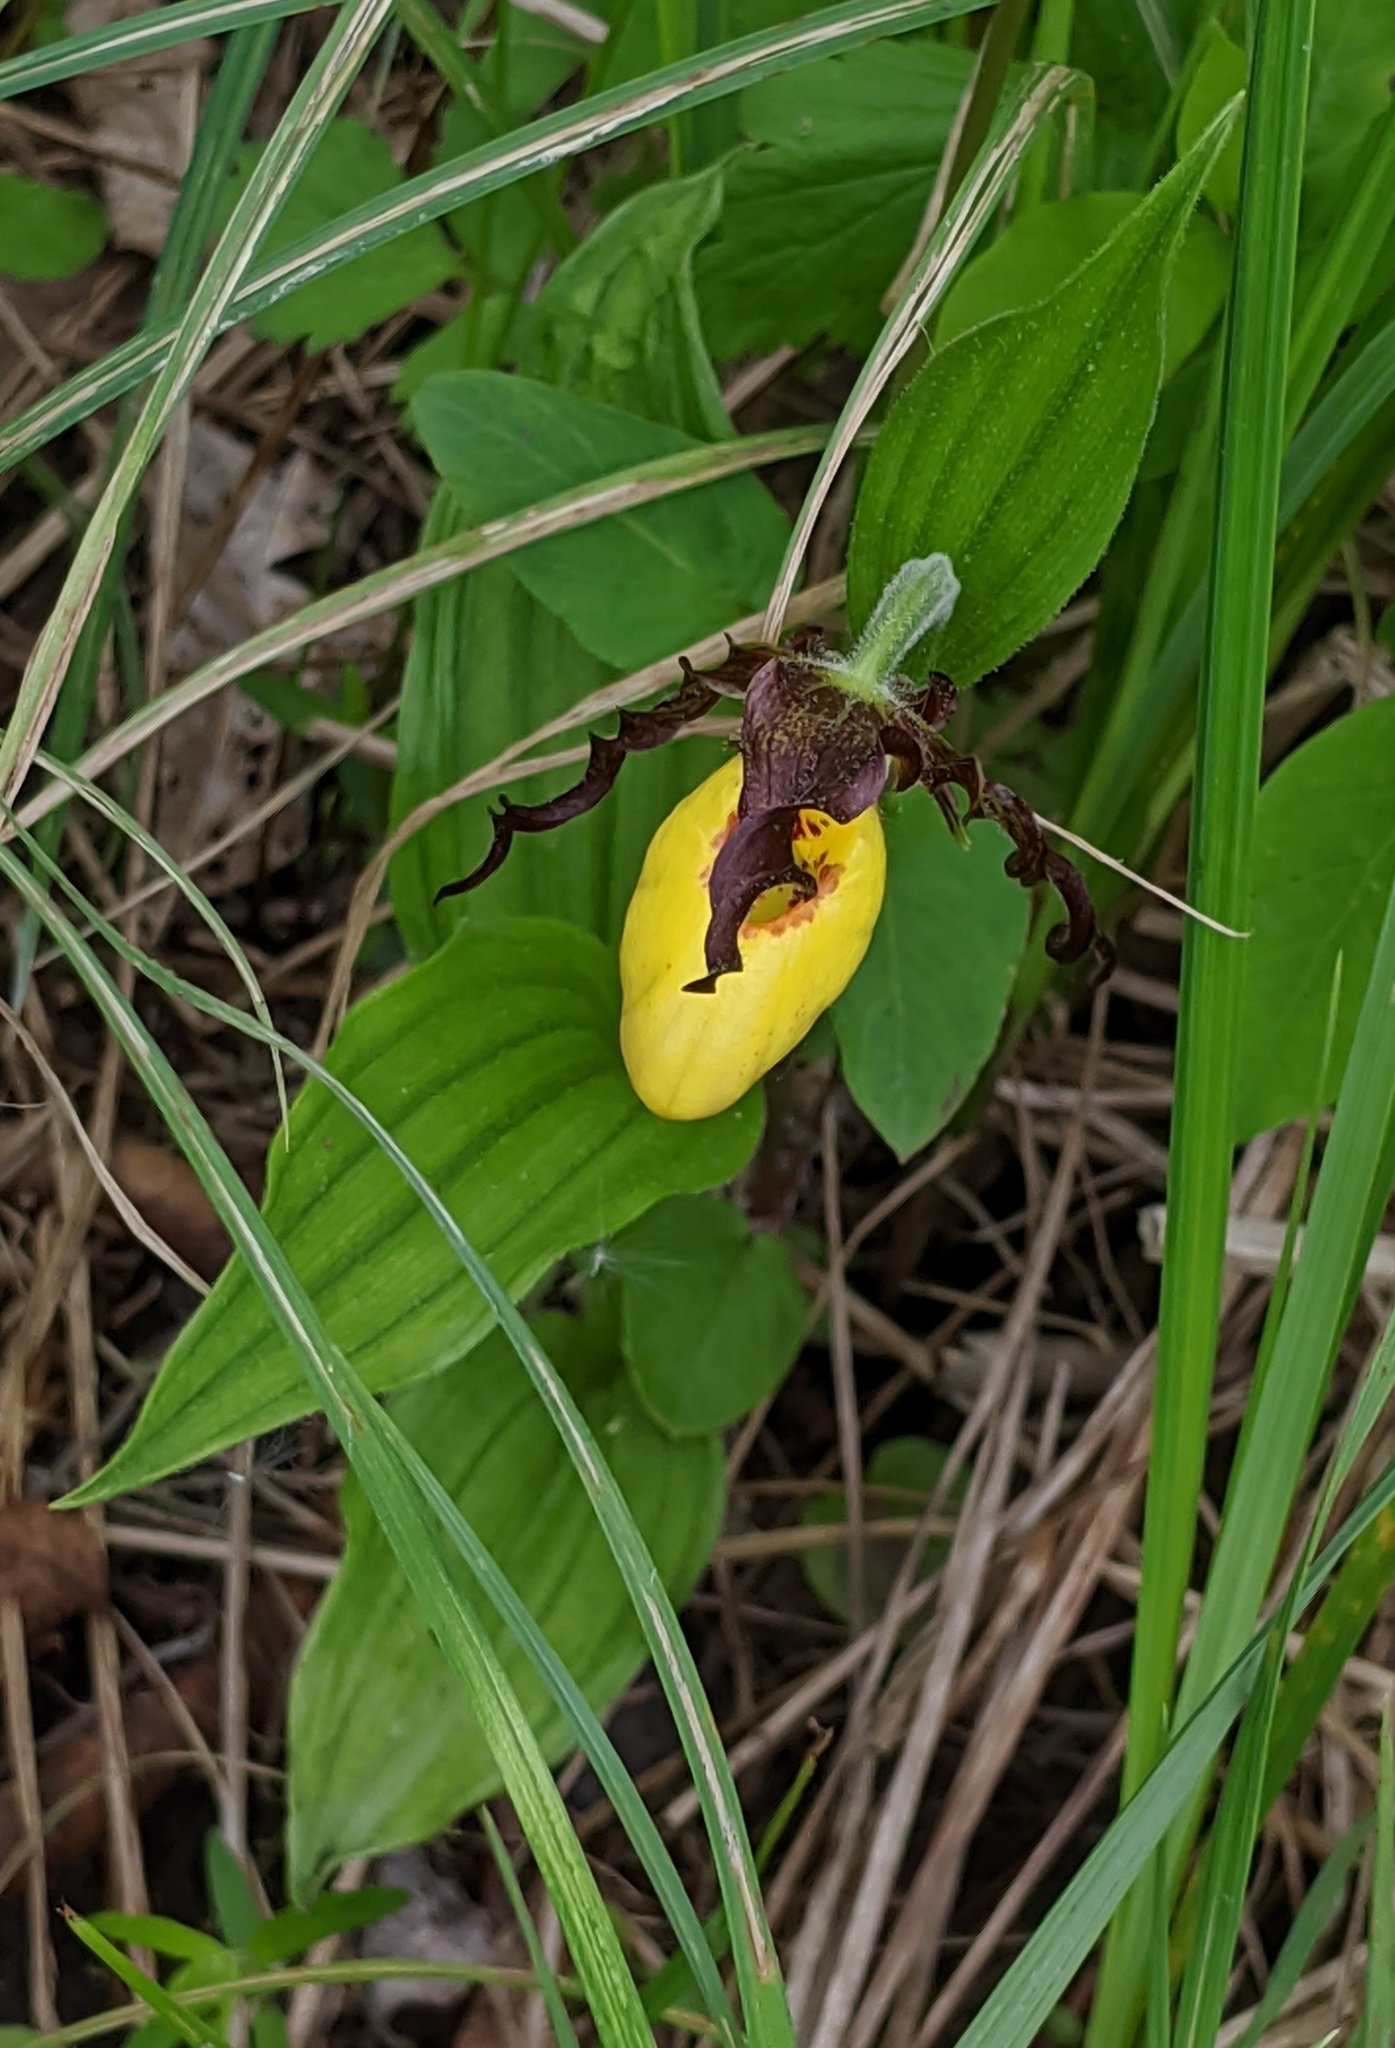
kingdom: Plantae
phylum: Tracheophyta
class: Liliopsida
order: Asparagales
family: Orchidaceae
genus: Cypripedium
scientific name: Cypripedium parviflorum
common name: American yellow lady's-slipper
